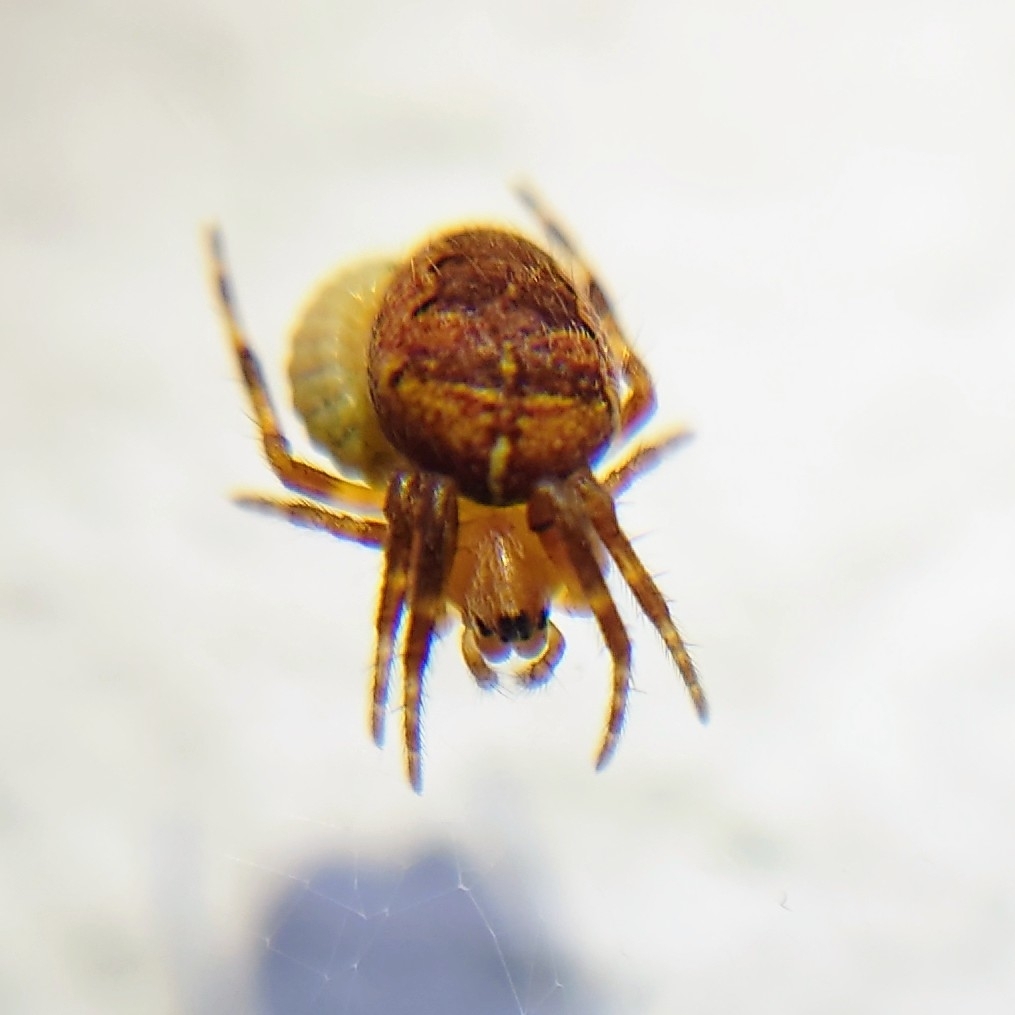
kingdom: Animalia
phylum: Arthropoda
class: Arachnida
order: Araneae
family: Araneidae
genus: Araneus
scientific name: Araneus diadematus
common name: Cross orbweaver
